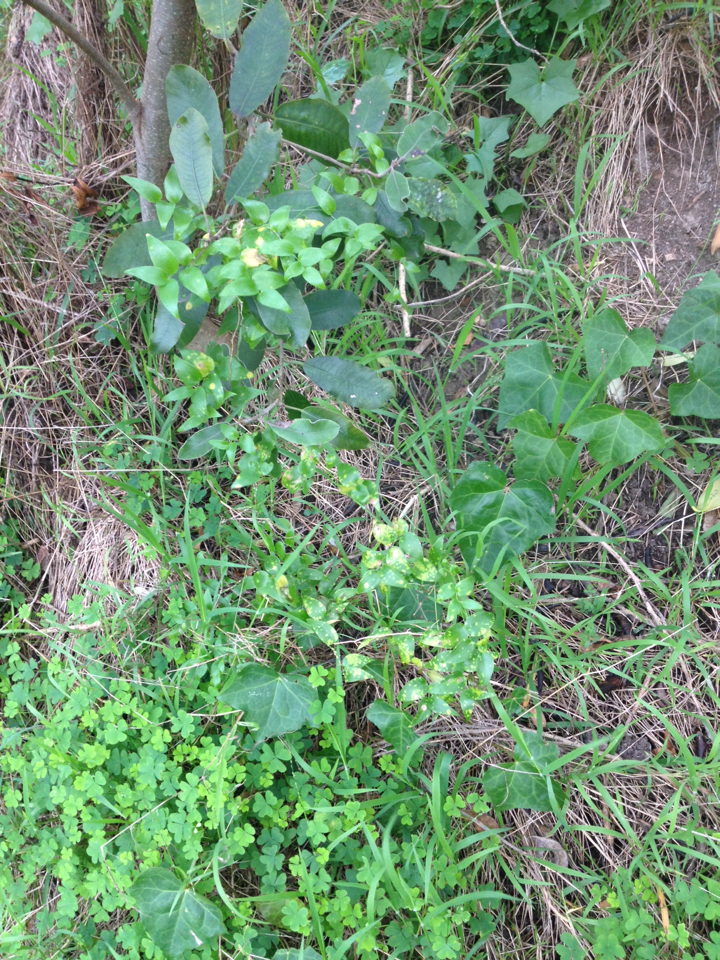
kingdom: Plantae
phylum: Tracheophyta
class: Liliopsida
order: Asparagales
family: Asparagaceae
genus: Asparagus
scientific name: Asparagus asparagoides
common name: African asparagus fern
